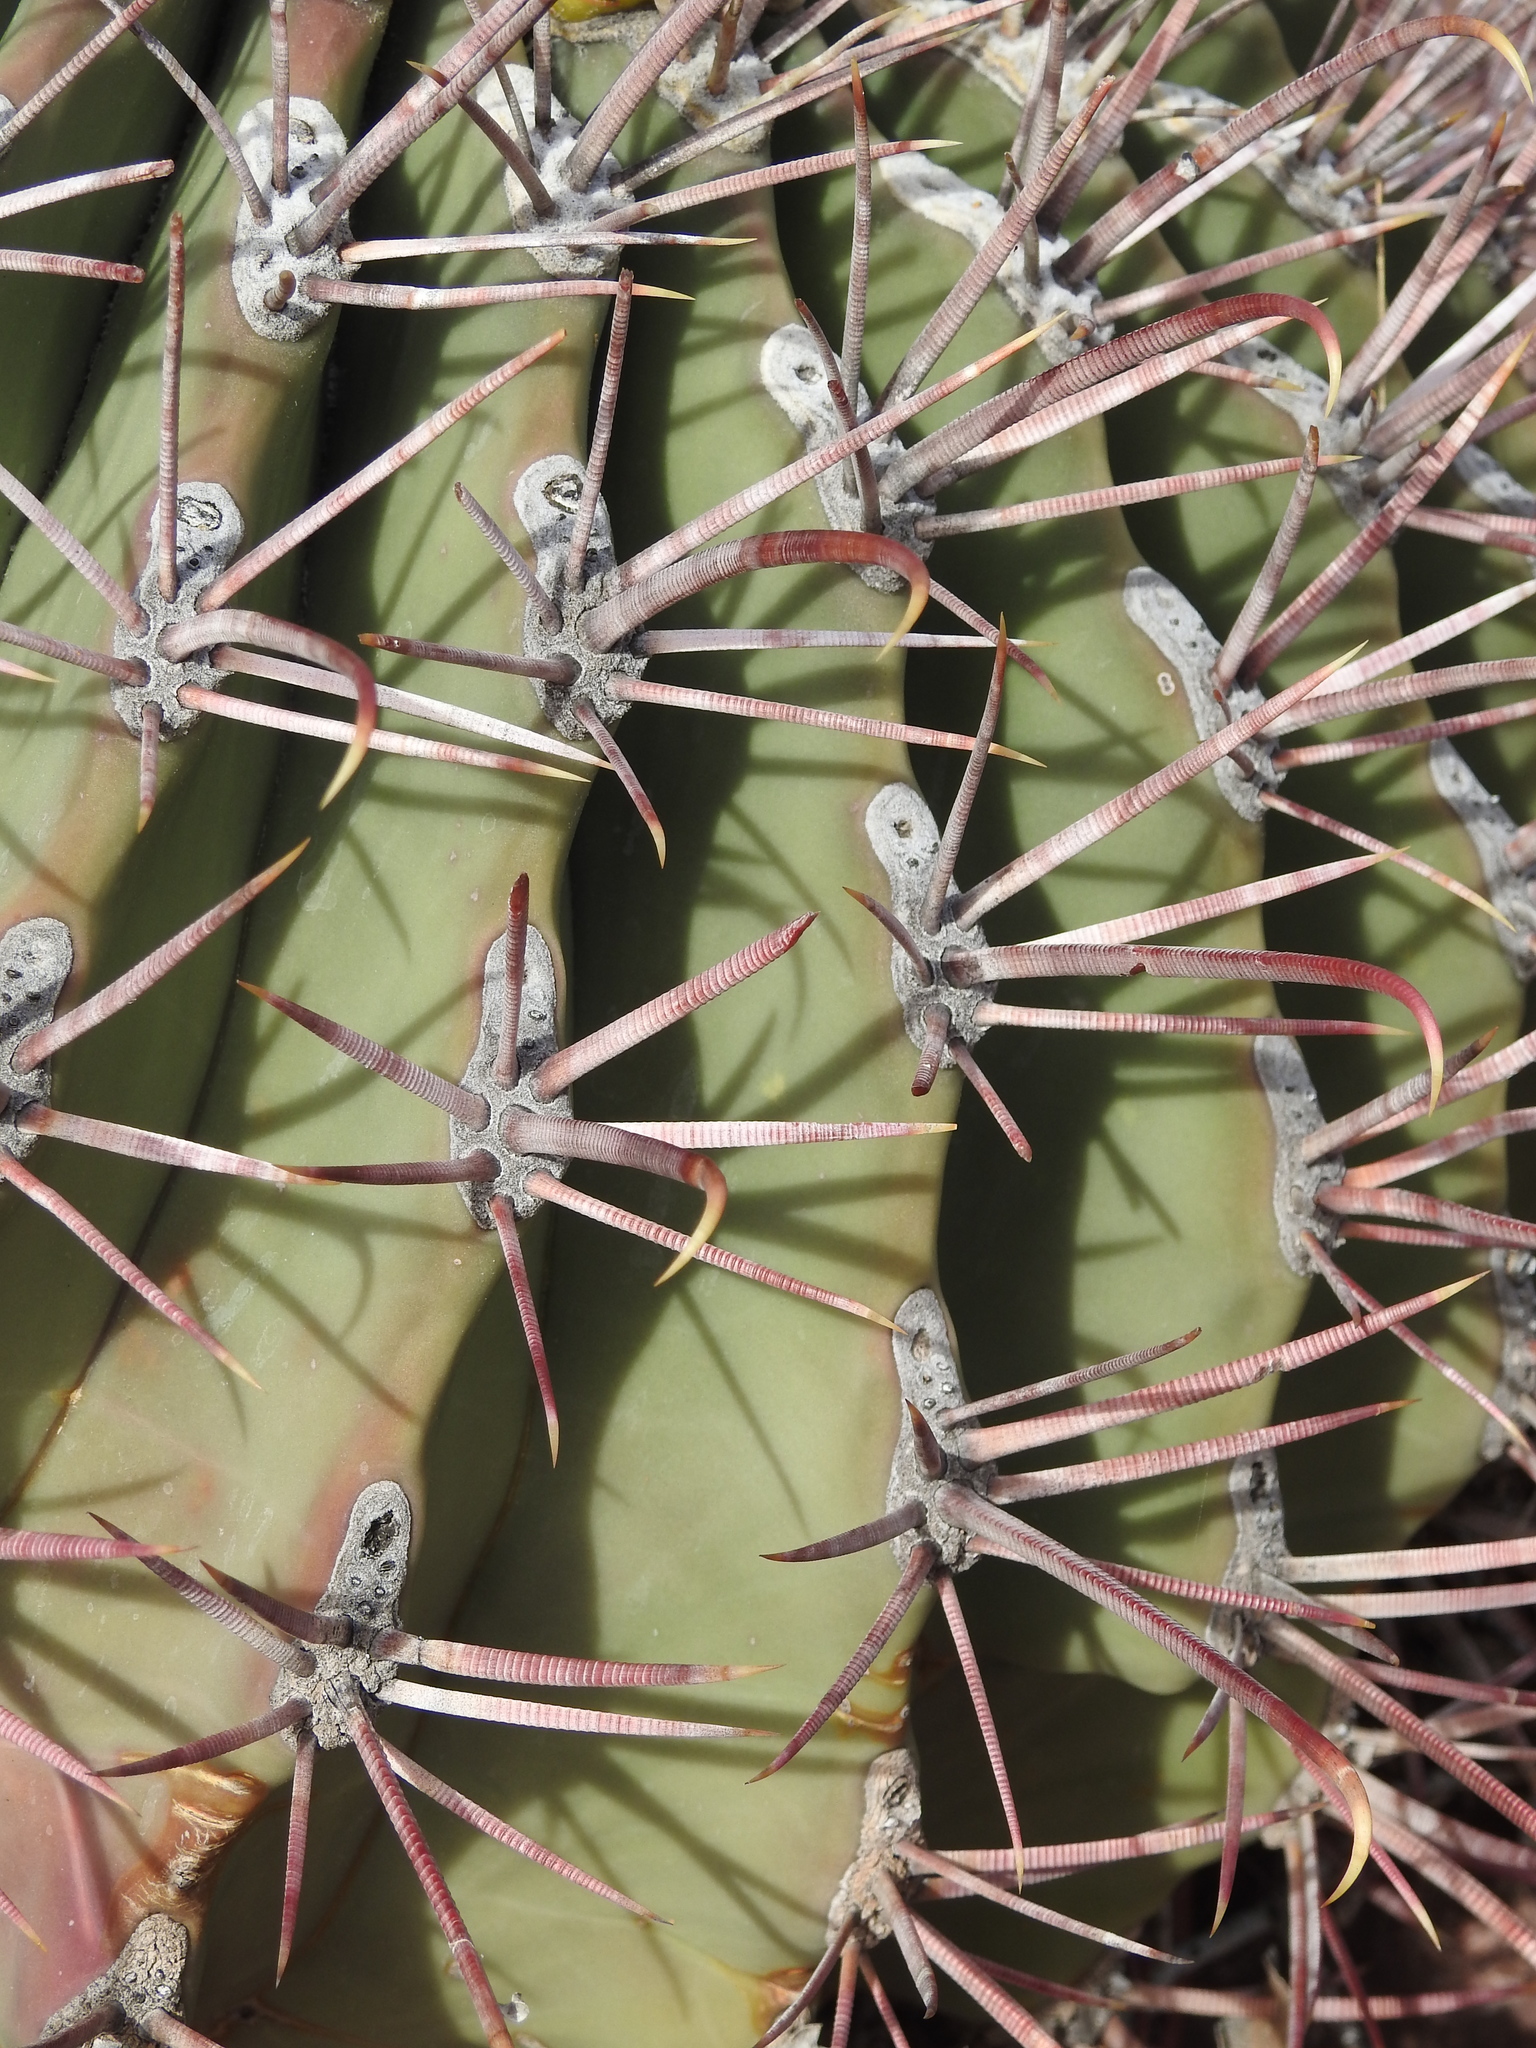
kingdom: Plantae
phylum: Tracheophyta
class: Magnoliopsida
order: Caryophyllales
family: Cactaceae
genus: Ferocactus
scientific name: Ferocactus emoryi
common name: Emory's barrel cactus
